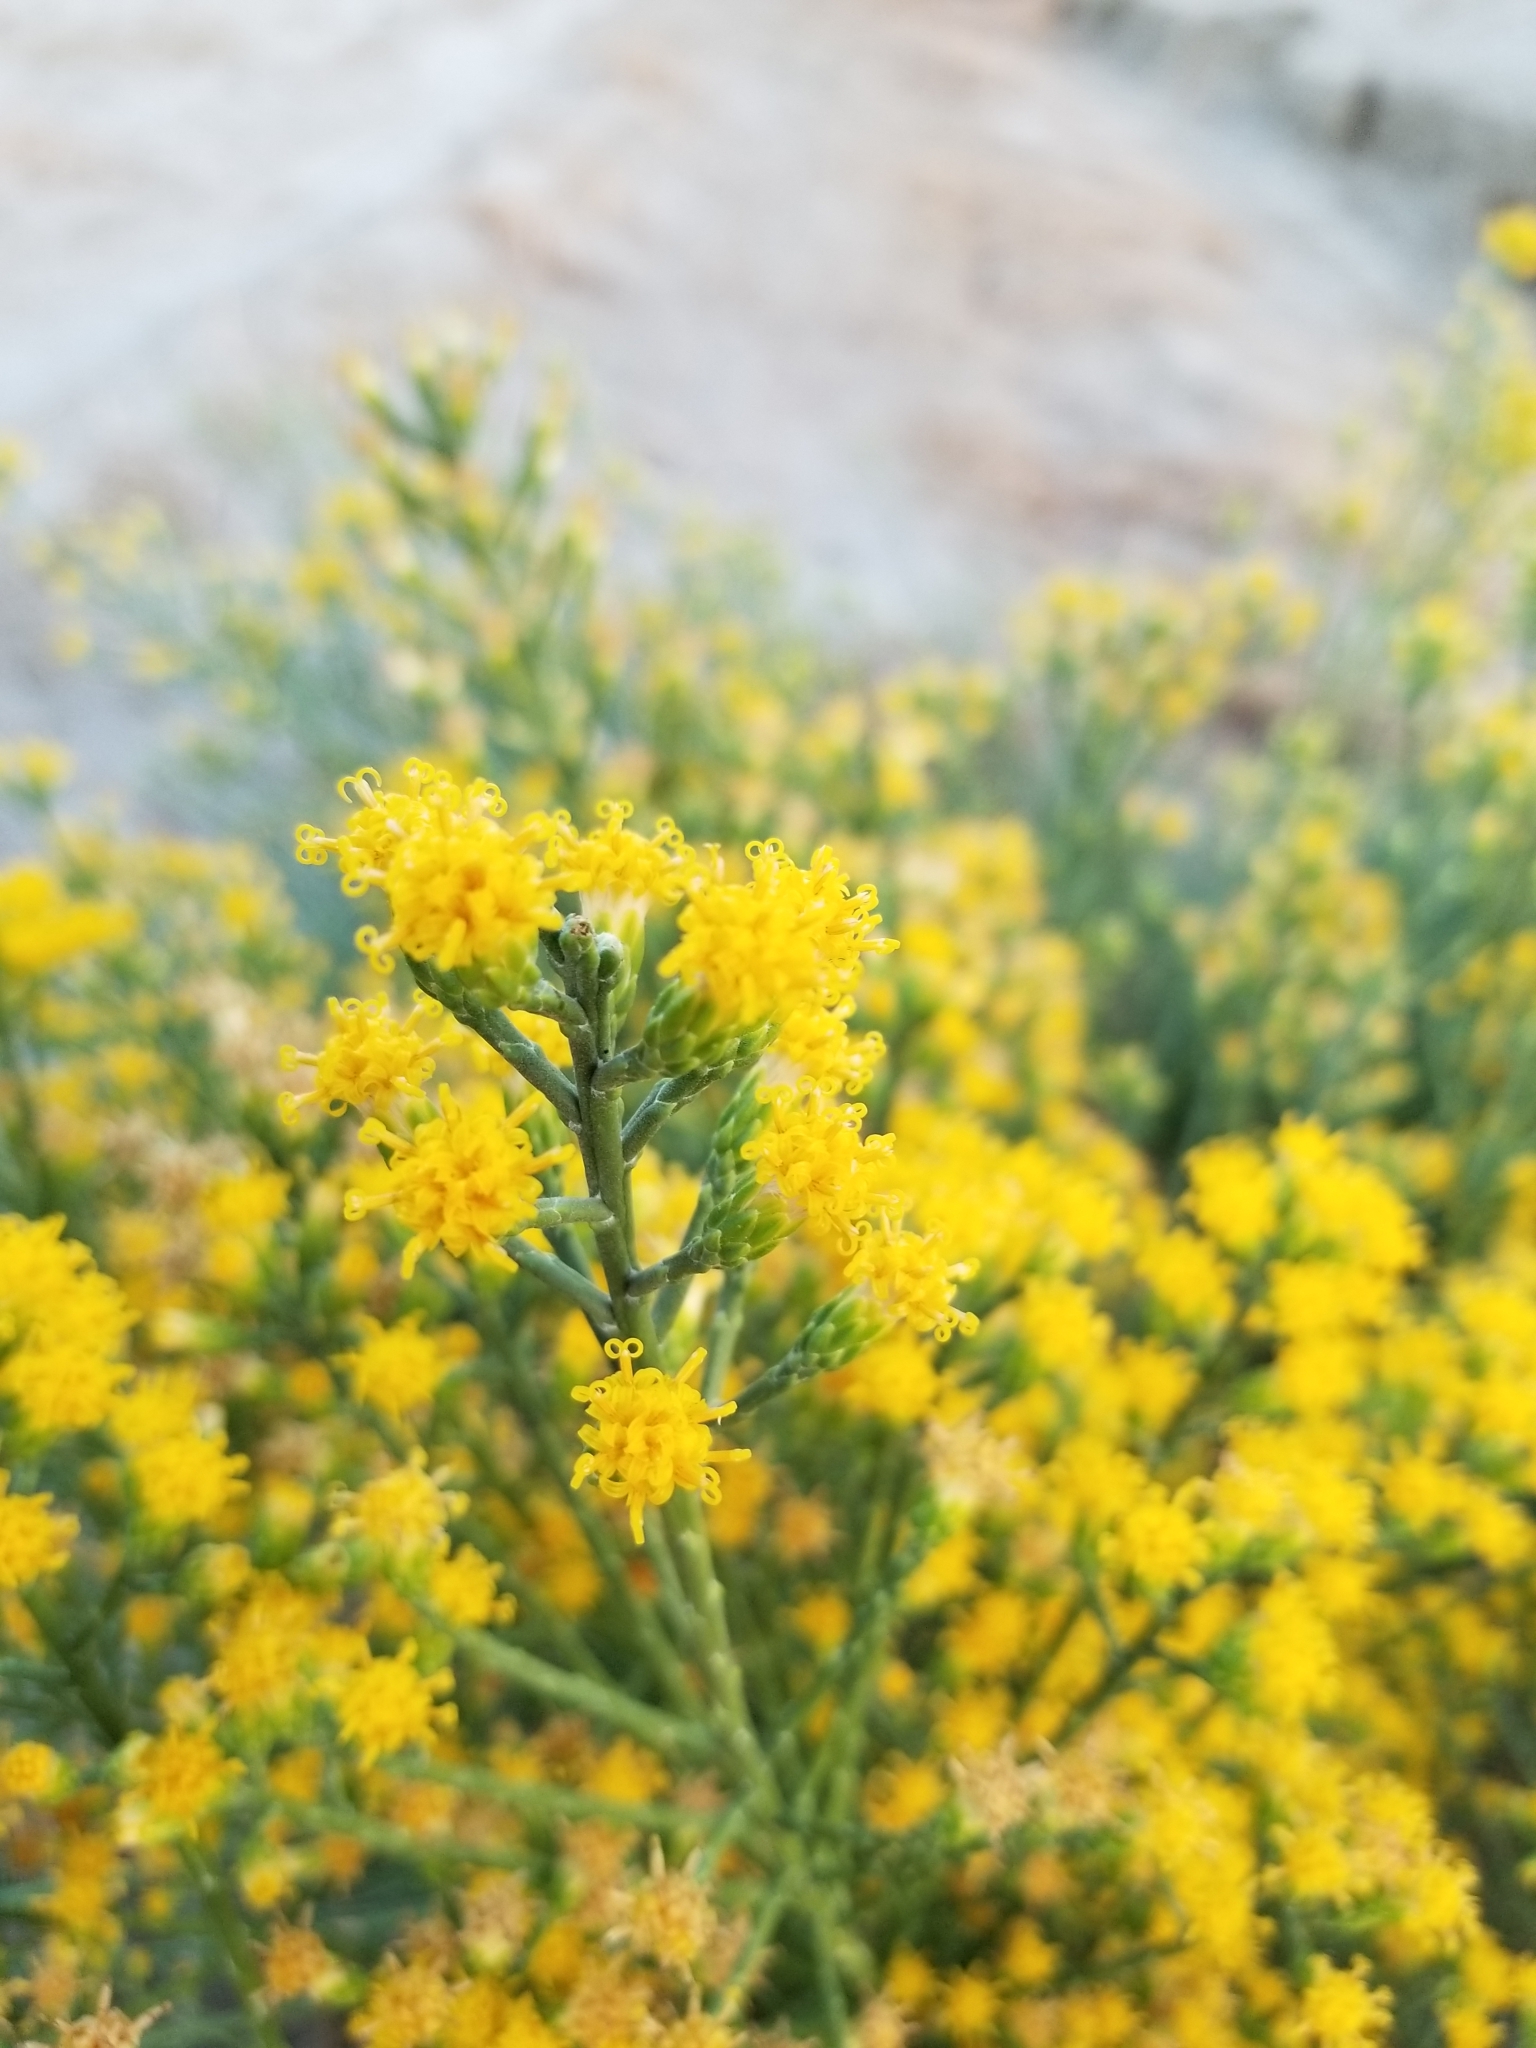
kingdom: Plantae
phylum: Tracheophyta
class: Magnoliopsida
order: Asterales
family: Asteraceae
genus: Lepidospartum
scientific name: Lepidospartum squamatum
